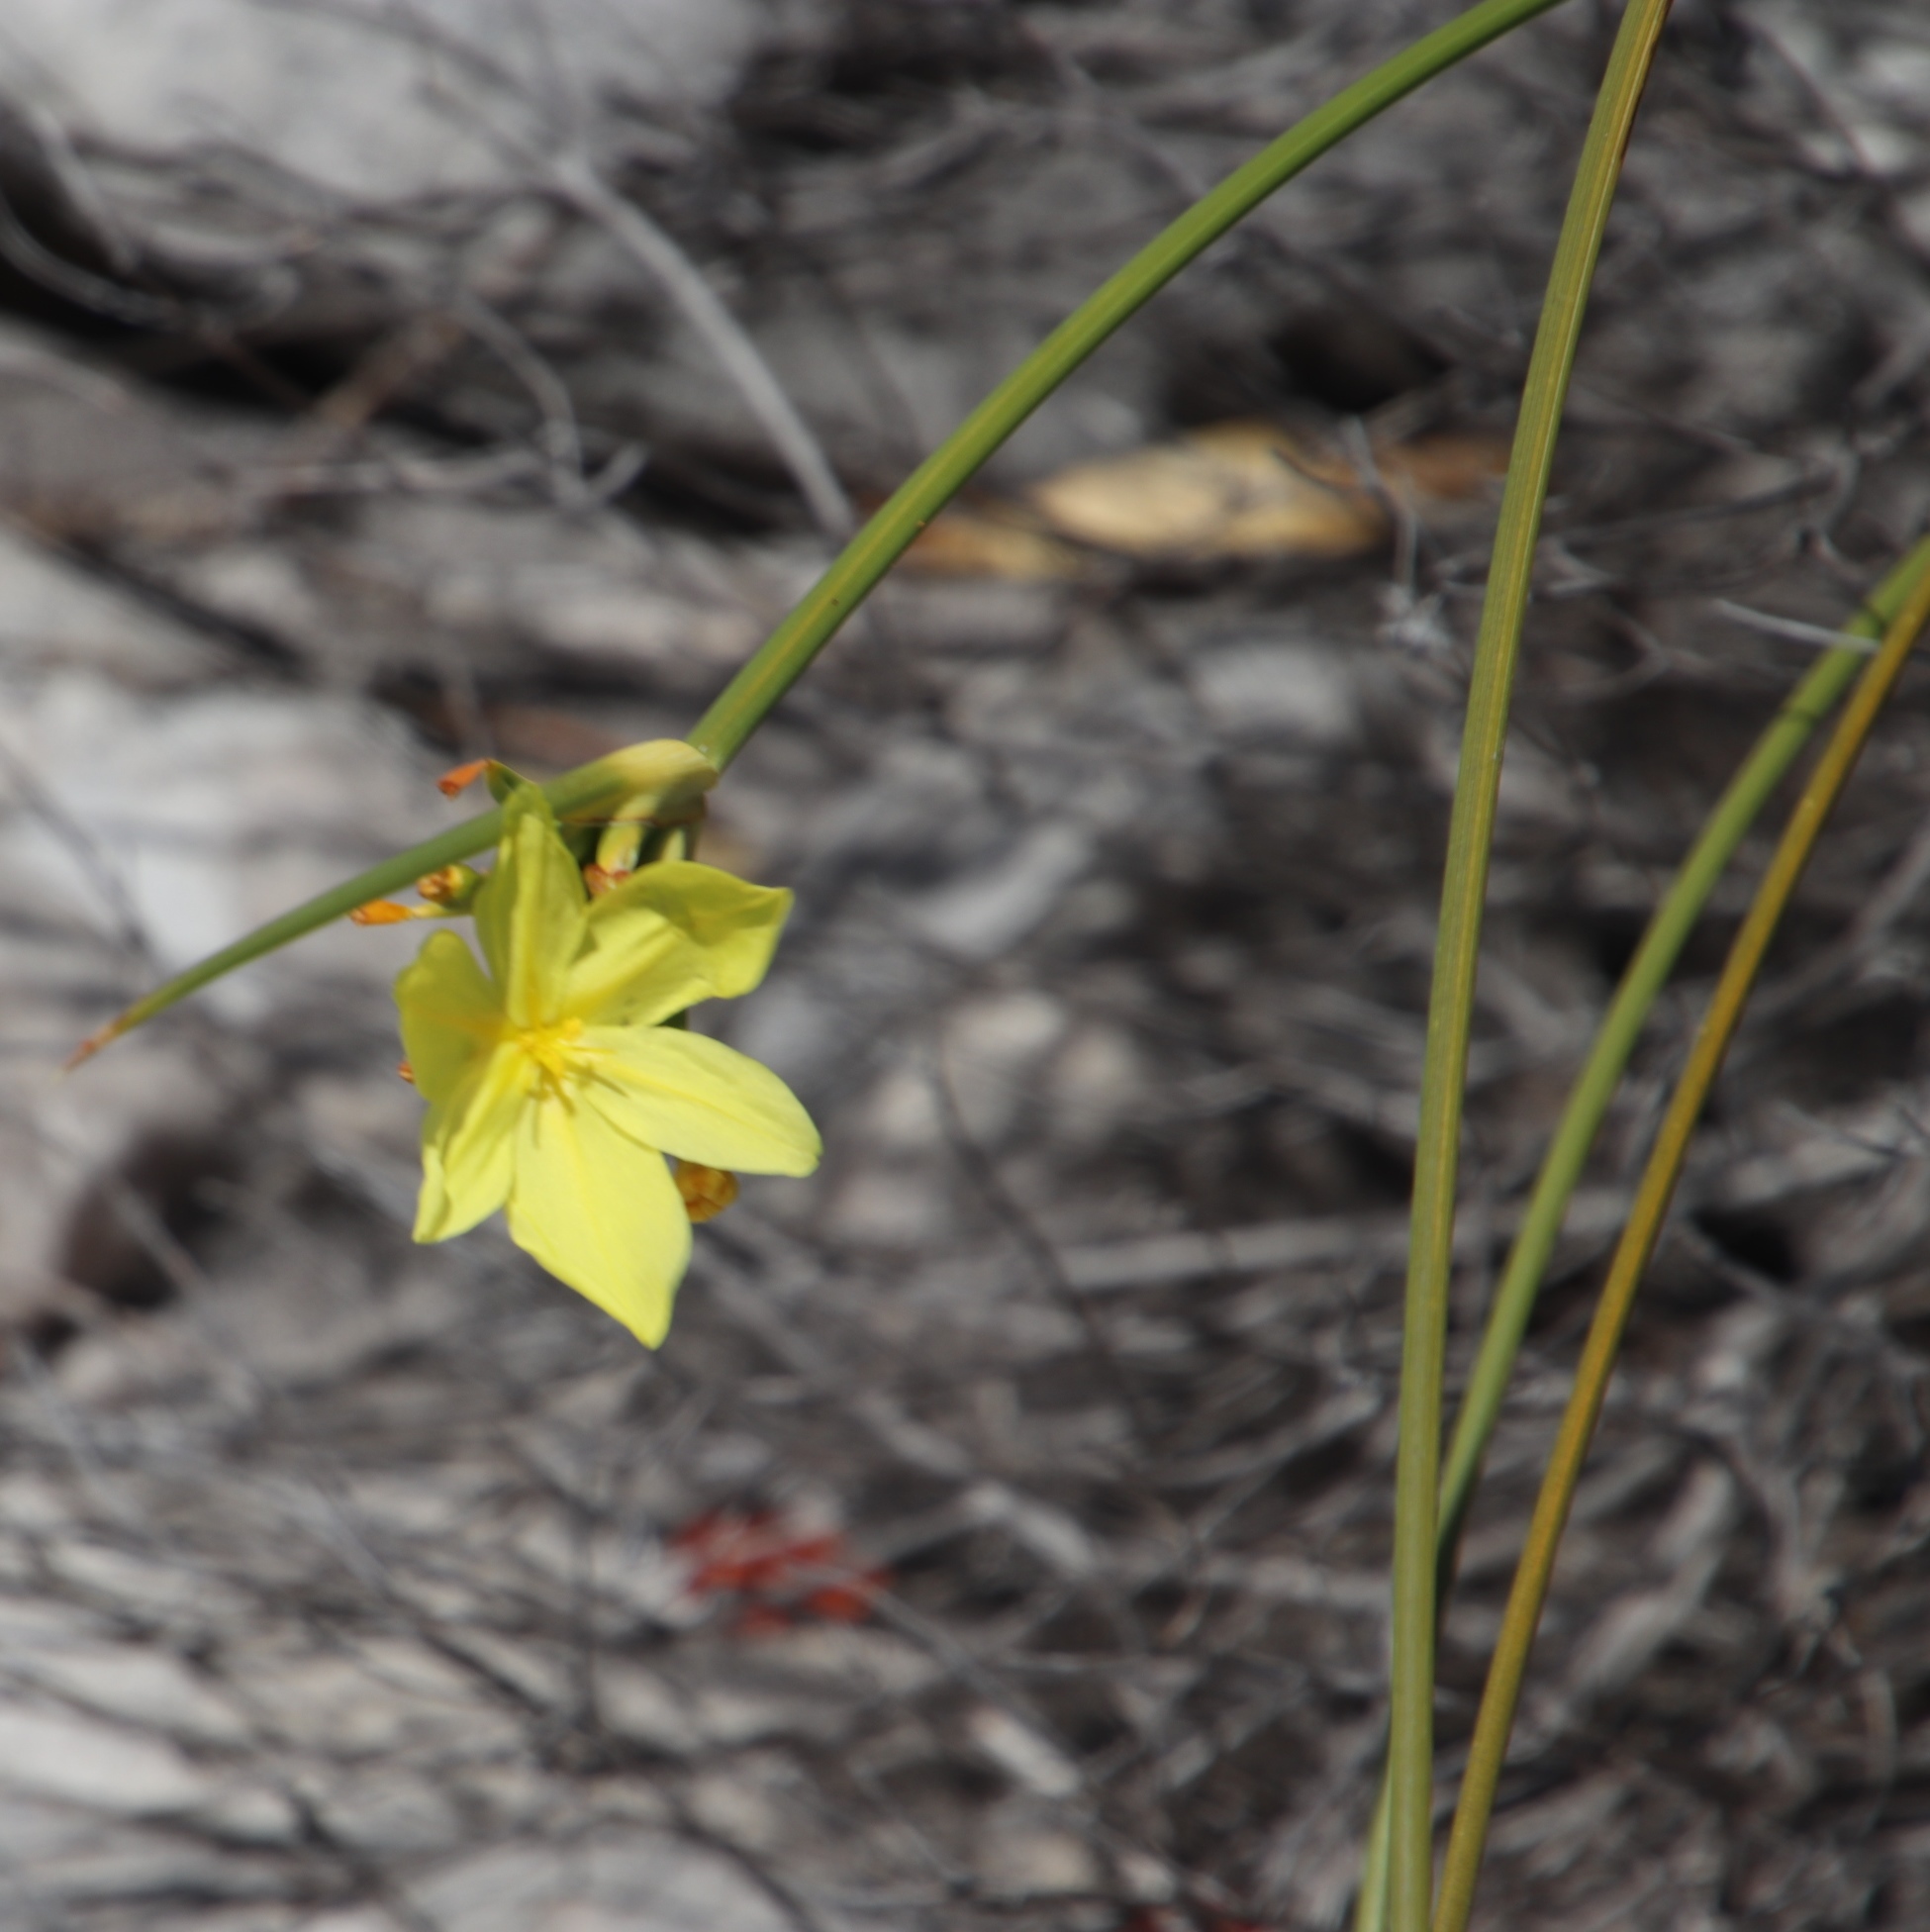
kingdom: Plantae
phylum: Tracheophyta
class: Liliopsida
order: Asparagales
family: Iridaceae
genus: Bobartia
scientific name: Bobartia indica
